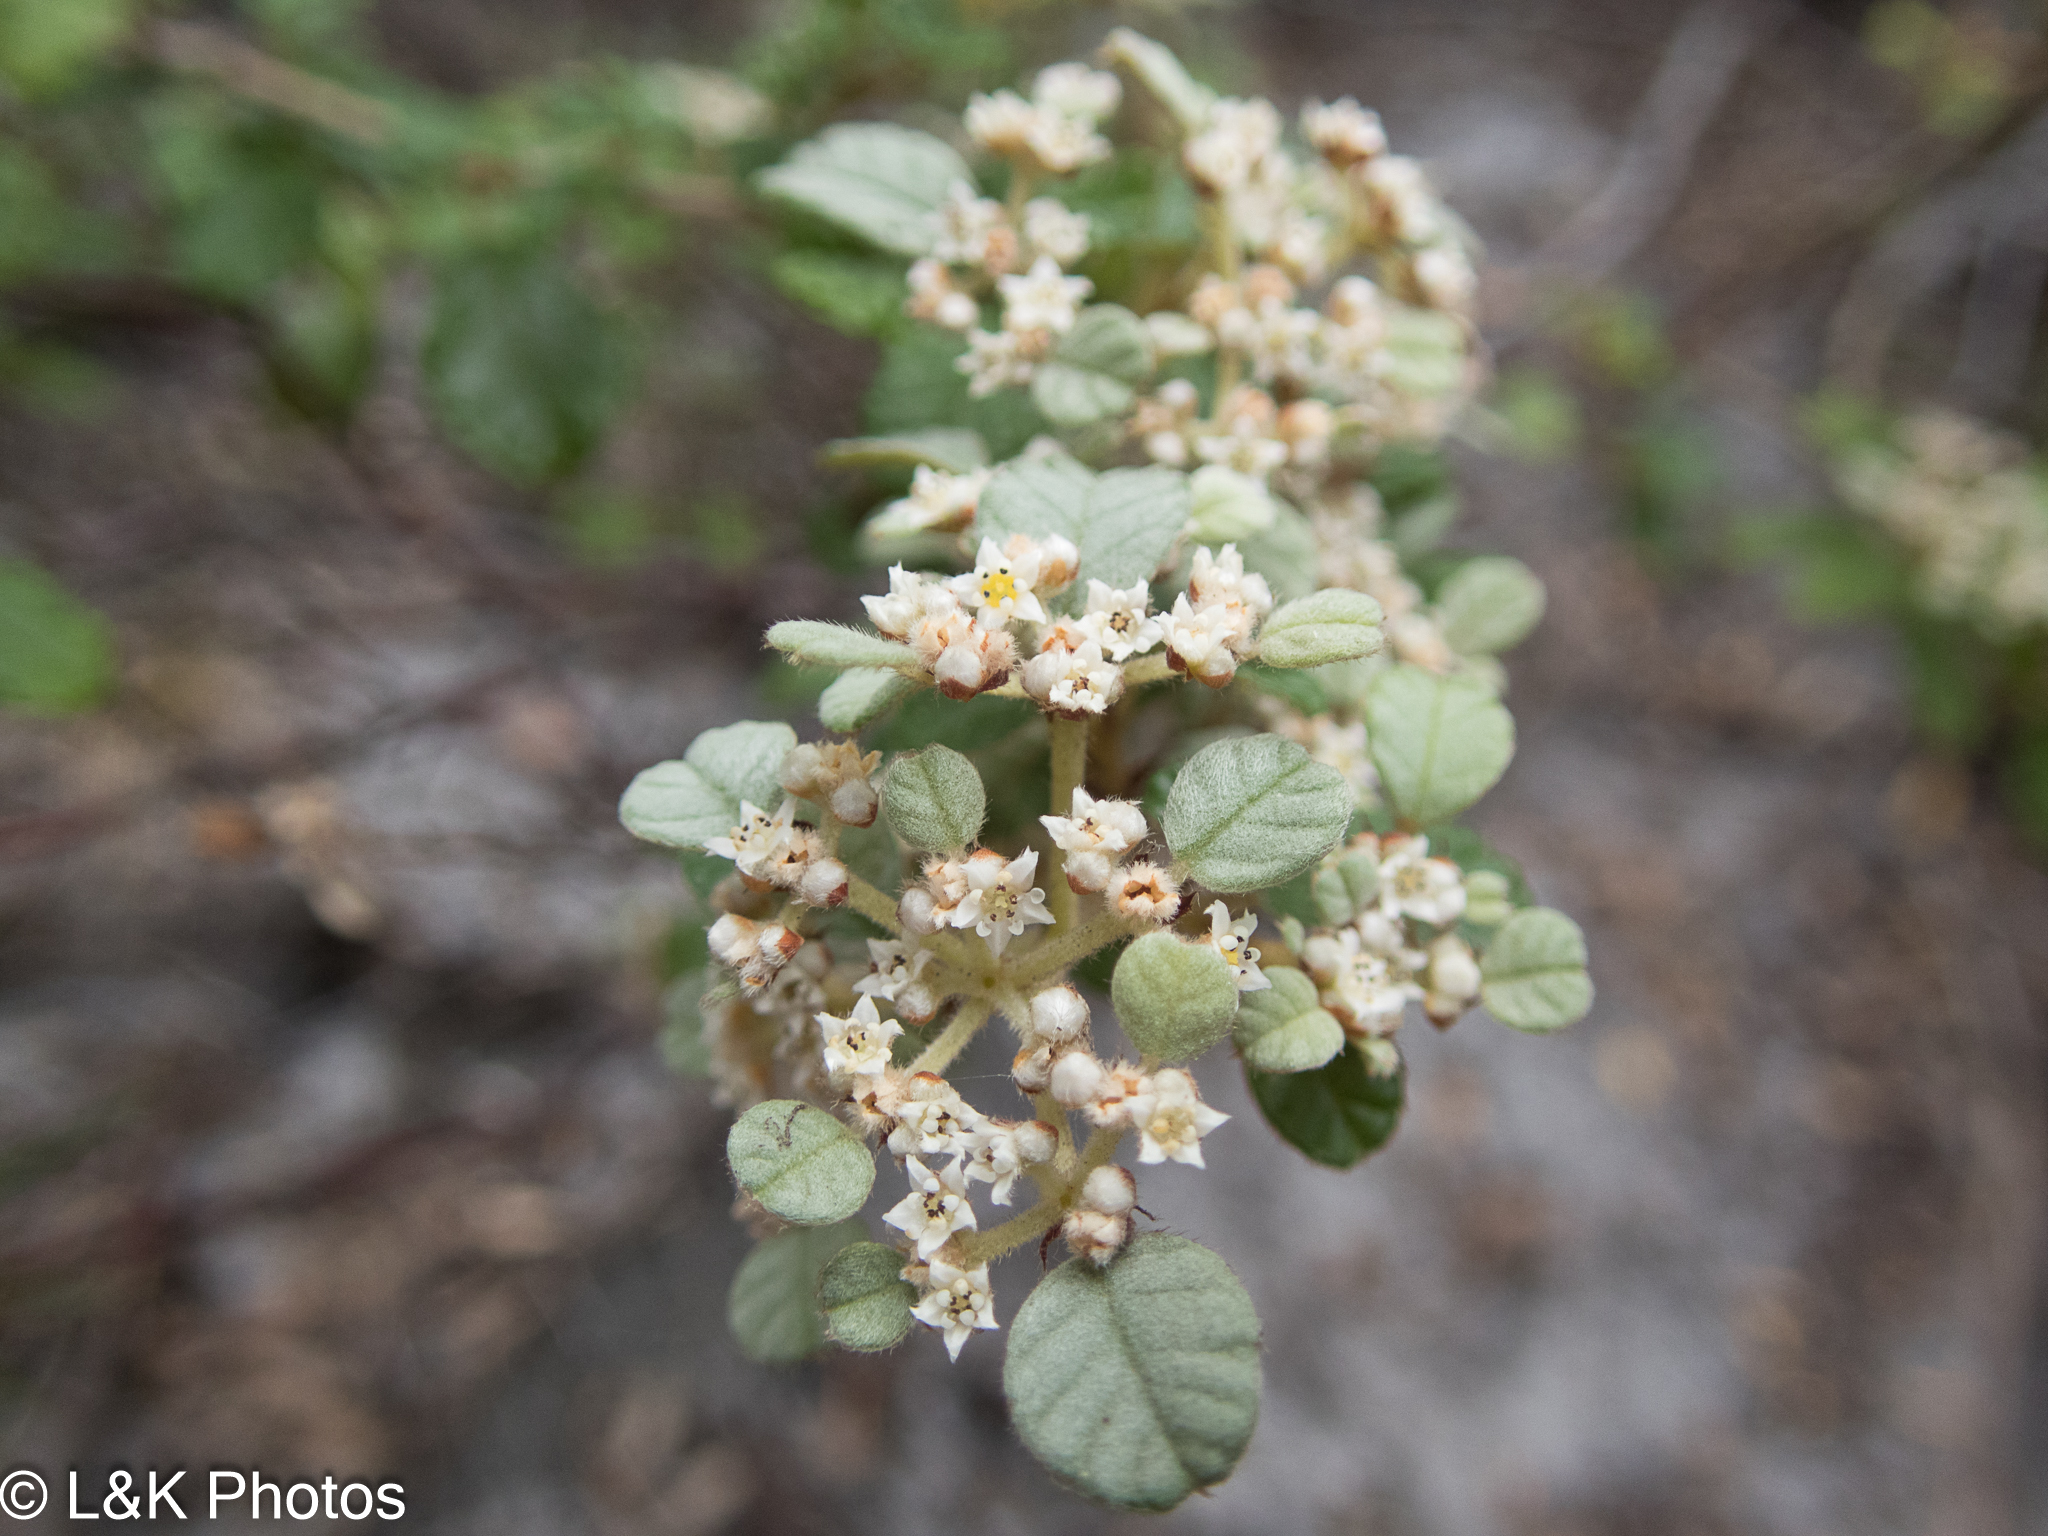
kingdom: Plantae
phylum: Tracheophyta
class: Magnoliopsida
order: Rosales
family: Rhamnaceae
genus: Spyridium
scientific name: Spyridium parvifolium
